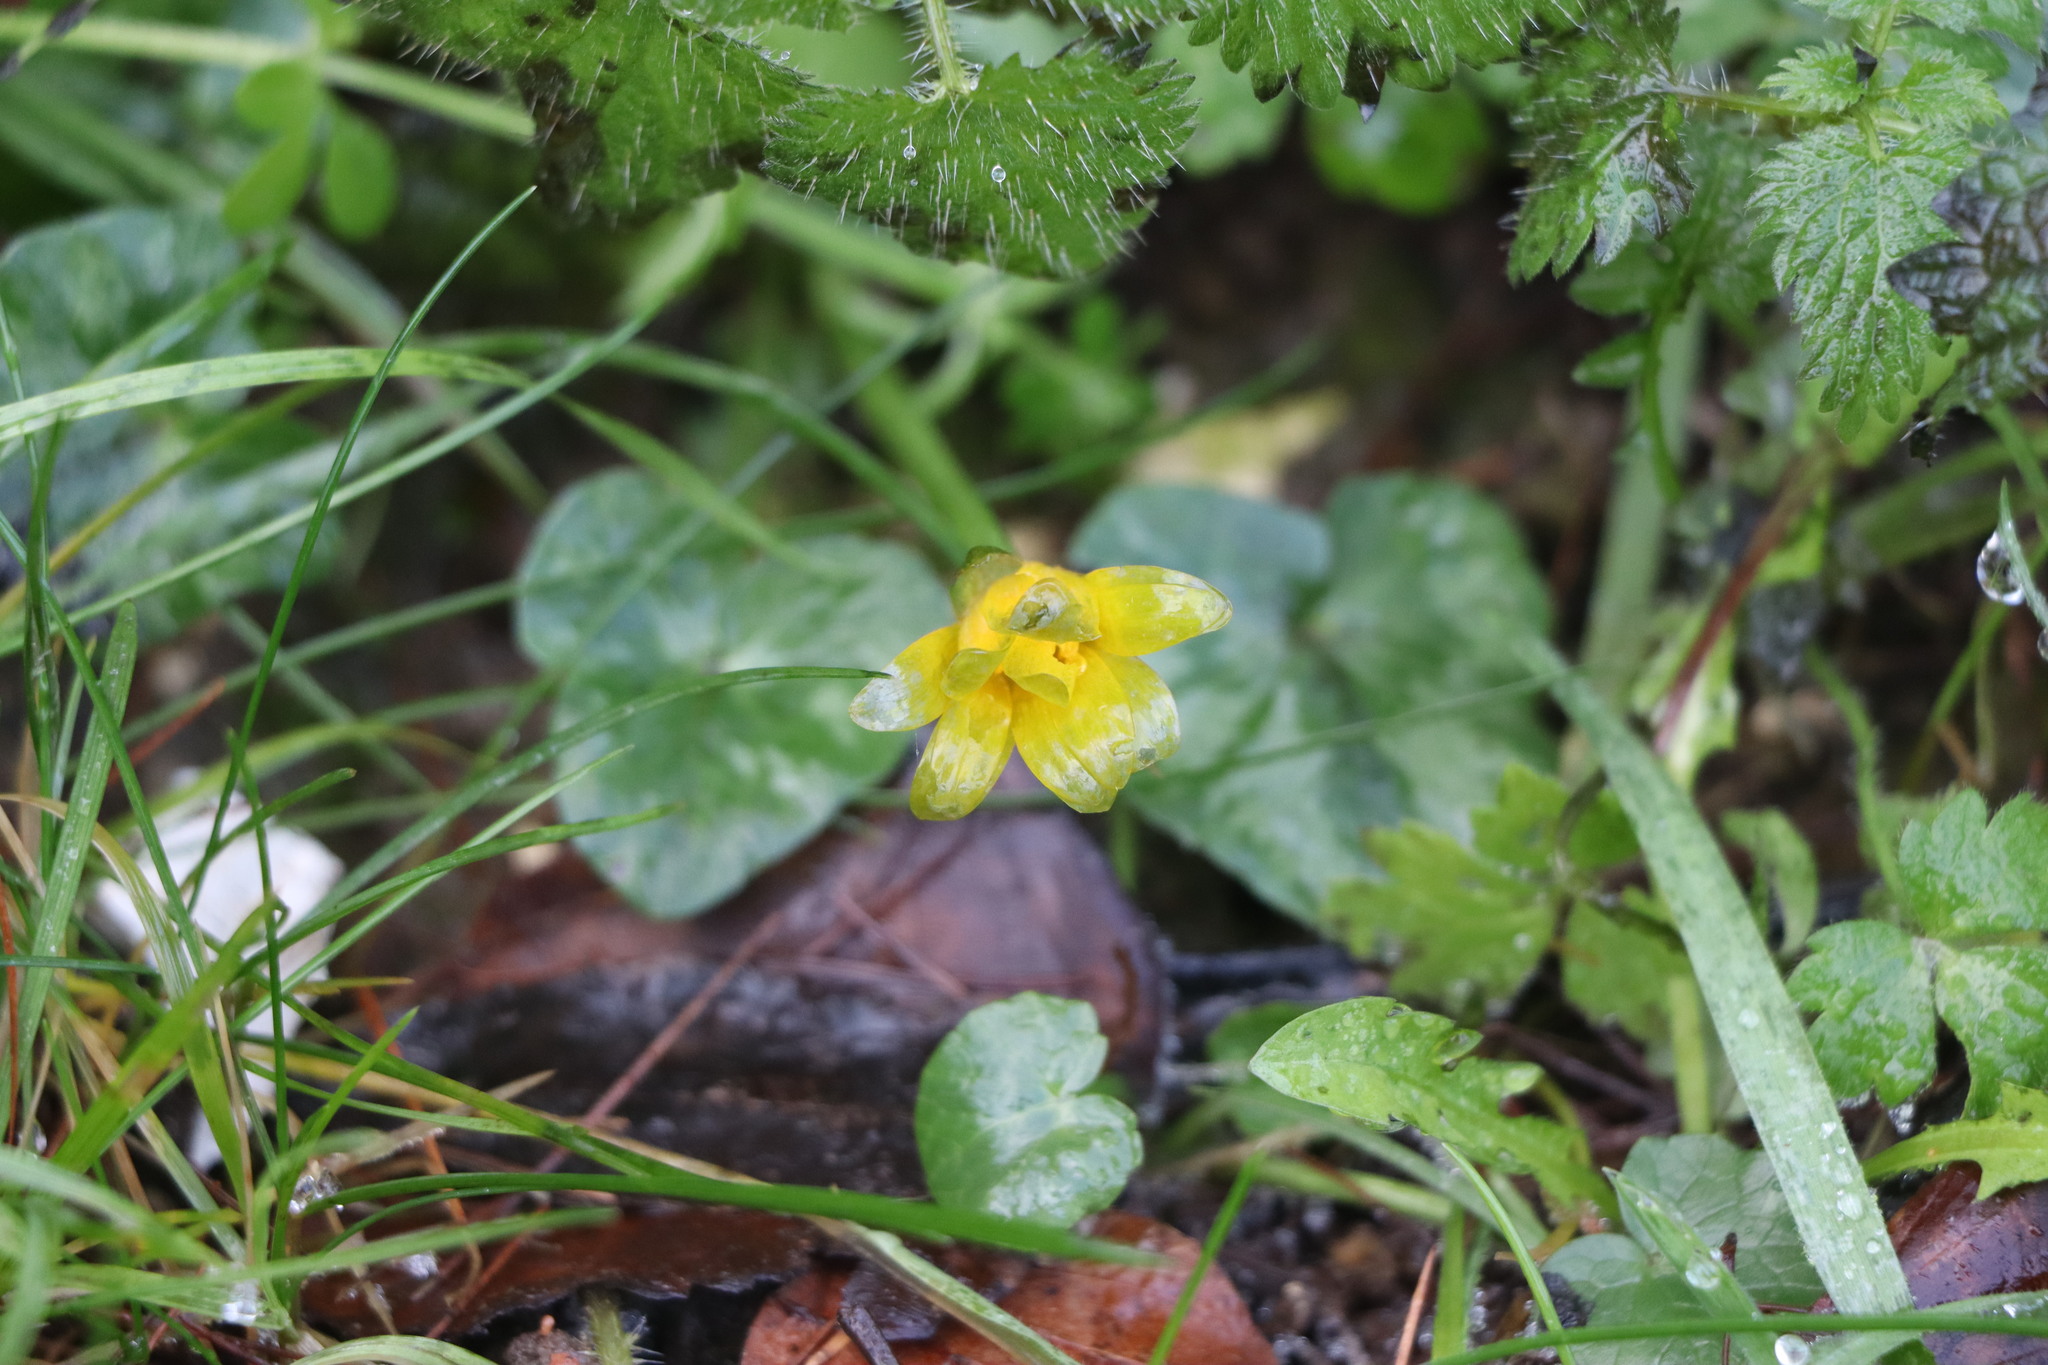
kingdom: Plantae
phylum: Tracheophyta
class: Magnoliopsida
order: Ranunculales
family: Ranunculaceae
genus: Ficaria
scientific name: Ficaria verna
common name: Lesser celandine
